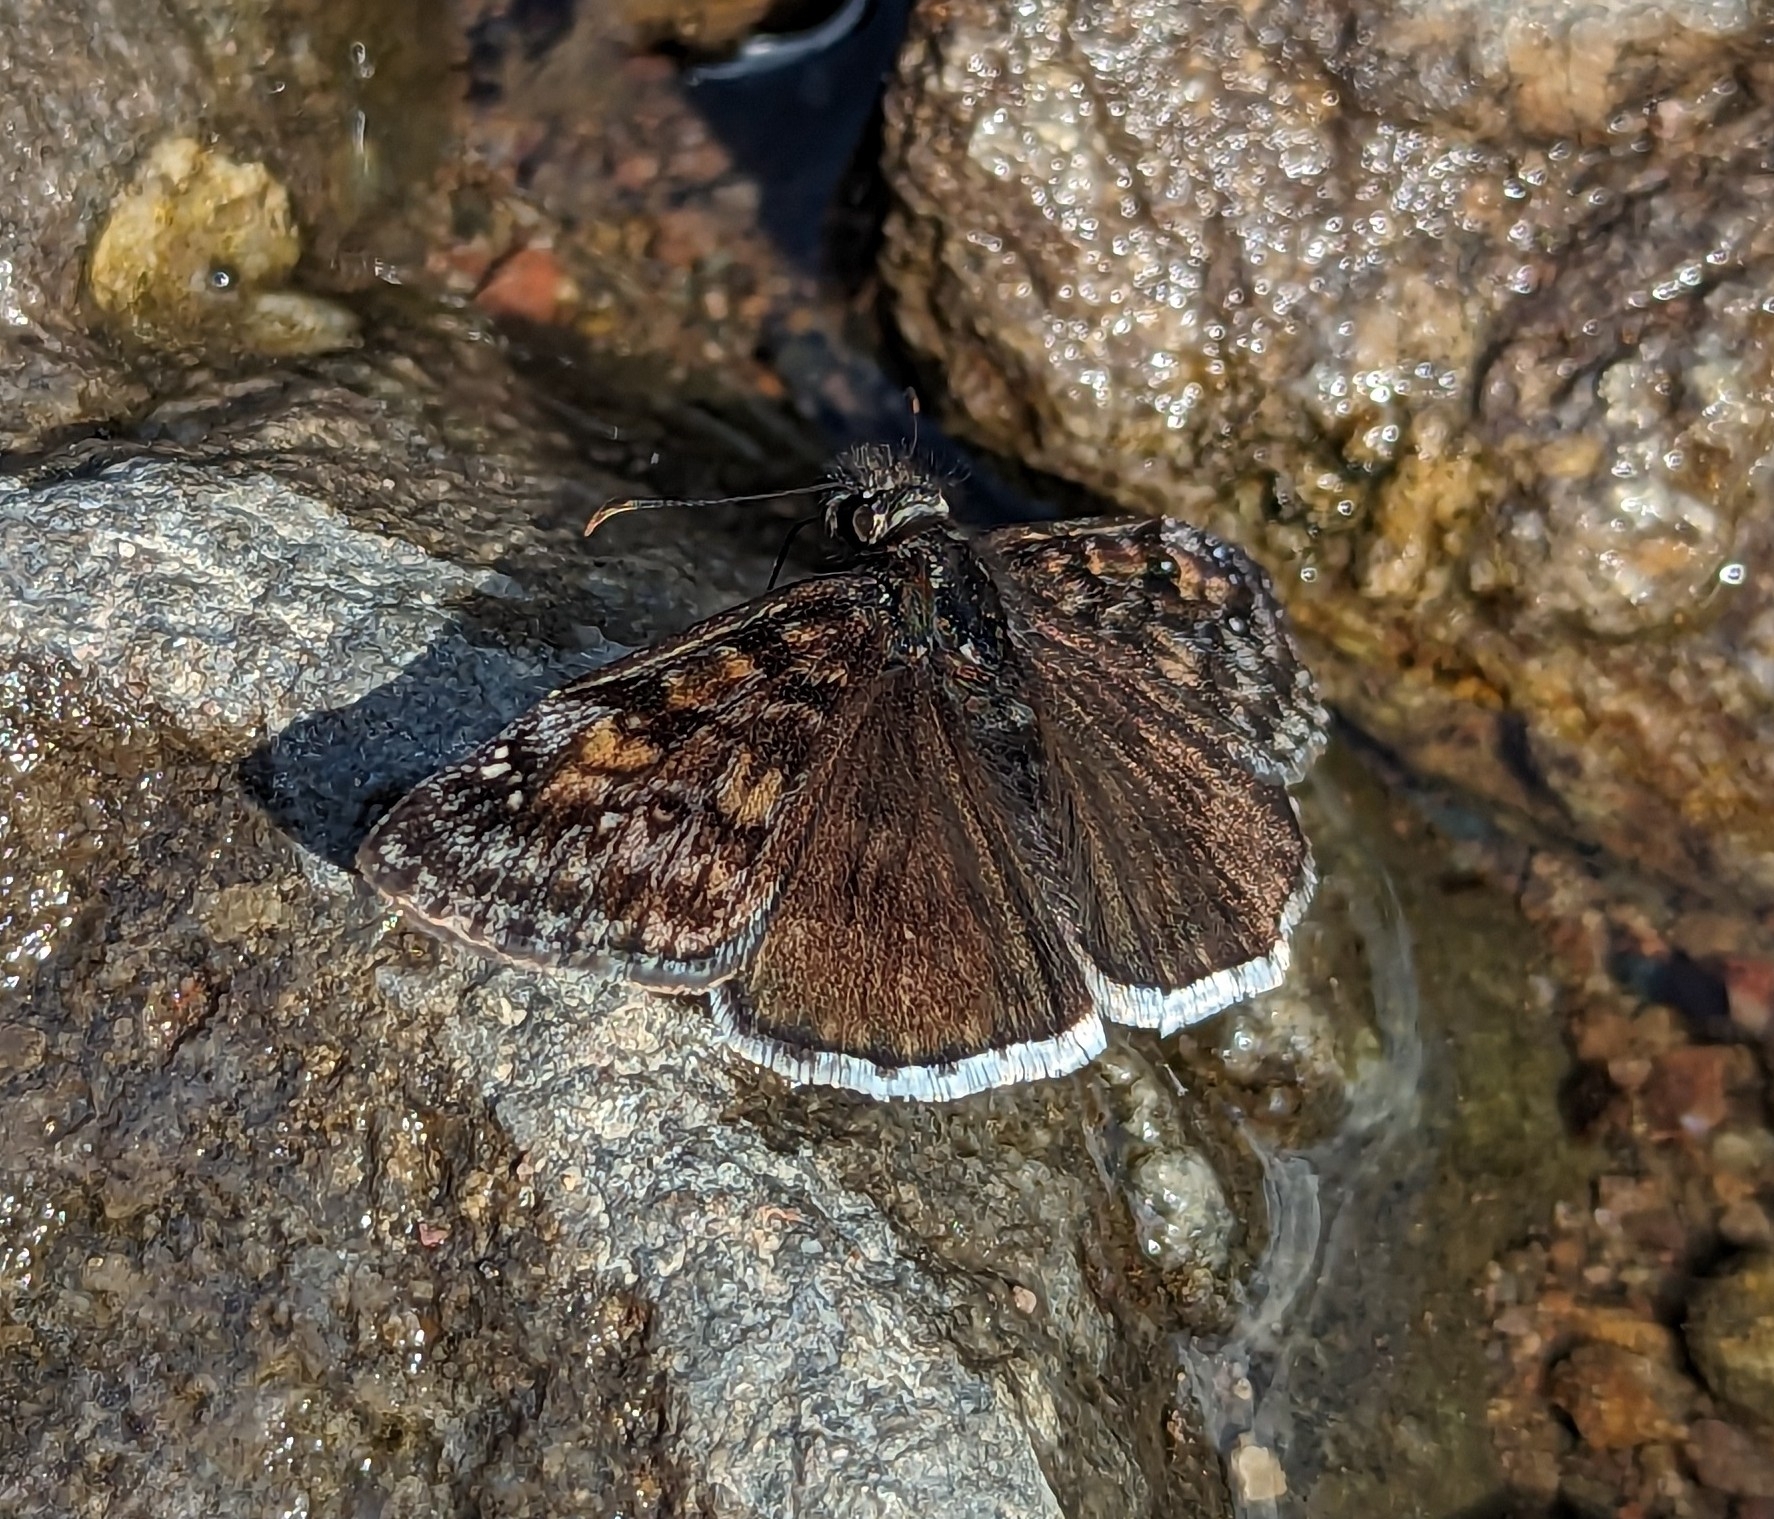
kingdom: Animalia
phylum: Arthropoda
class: Insecta
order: Lepidoptera
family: Hesperiidae
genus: Erynnis
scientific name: Erynnis pacuvius
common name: Pacuvius duskywing
